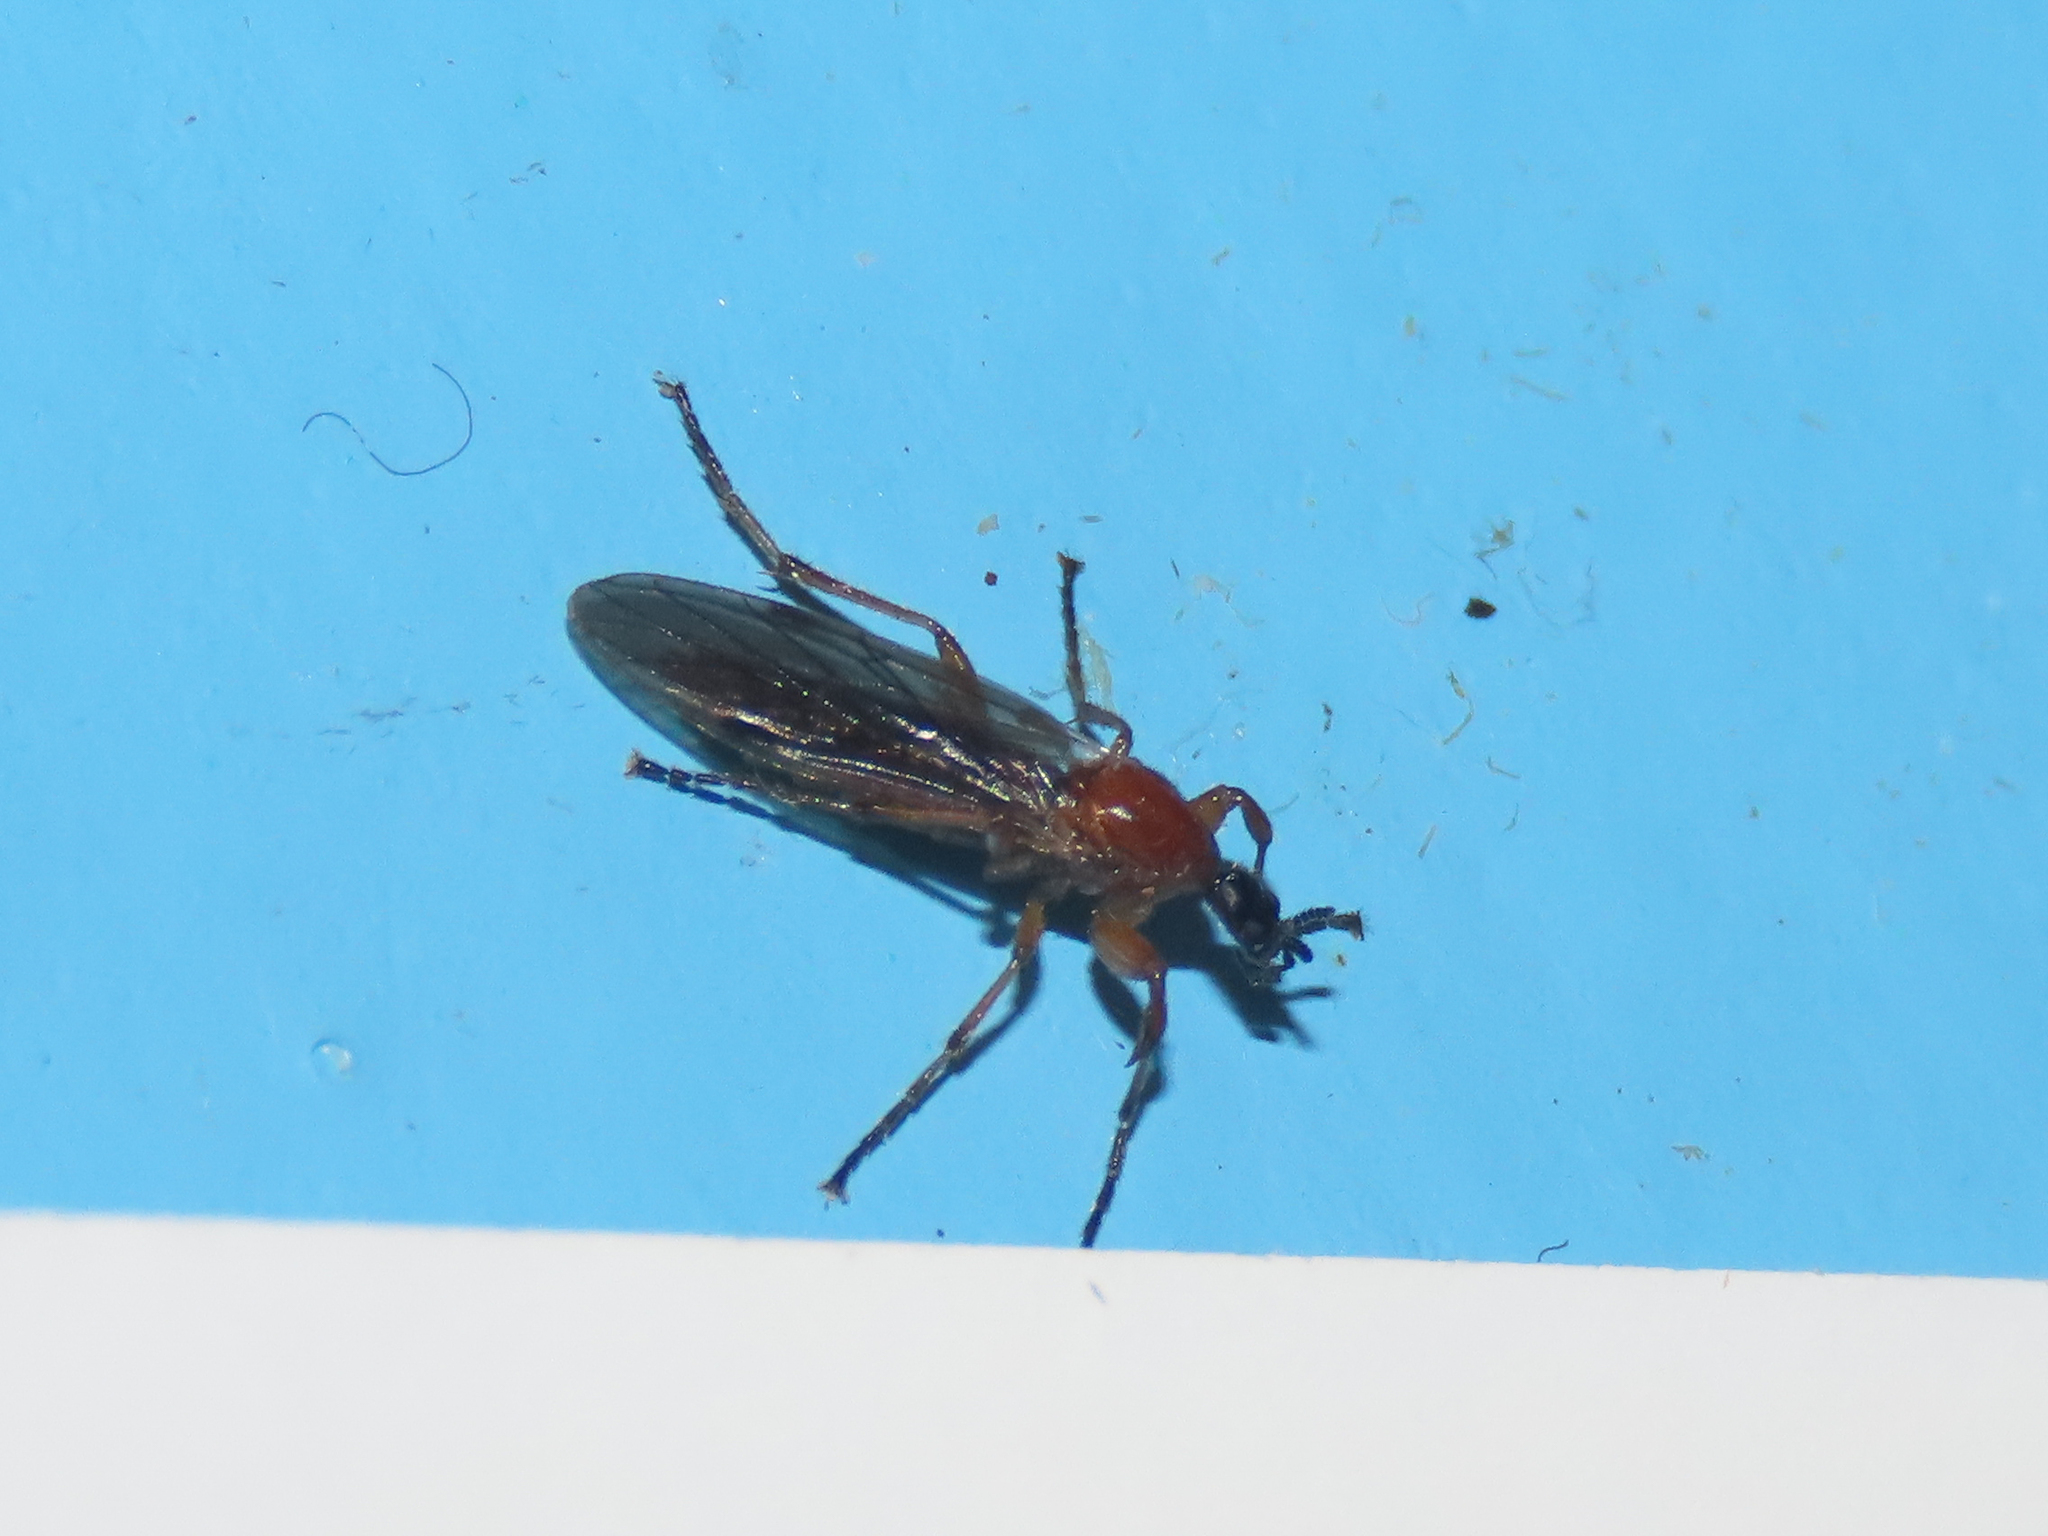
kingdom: Animalia
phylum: Arthropoda
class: Insecta
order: Diptera
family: Bibionidae
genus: Bibio
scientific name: Bibio townesi
